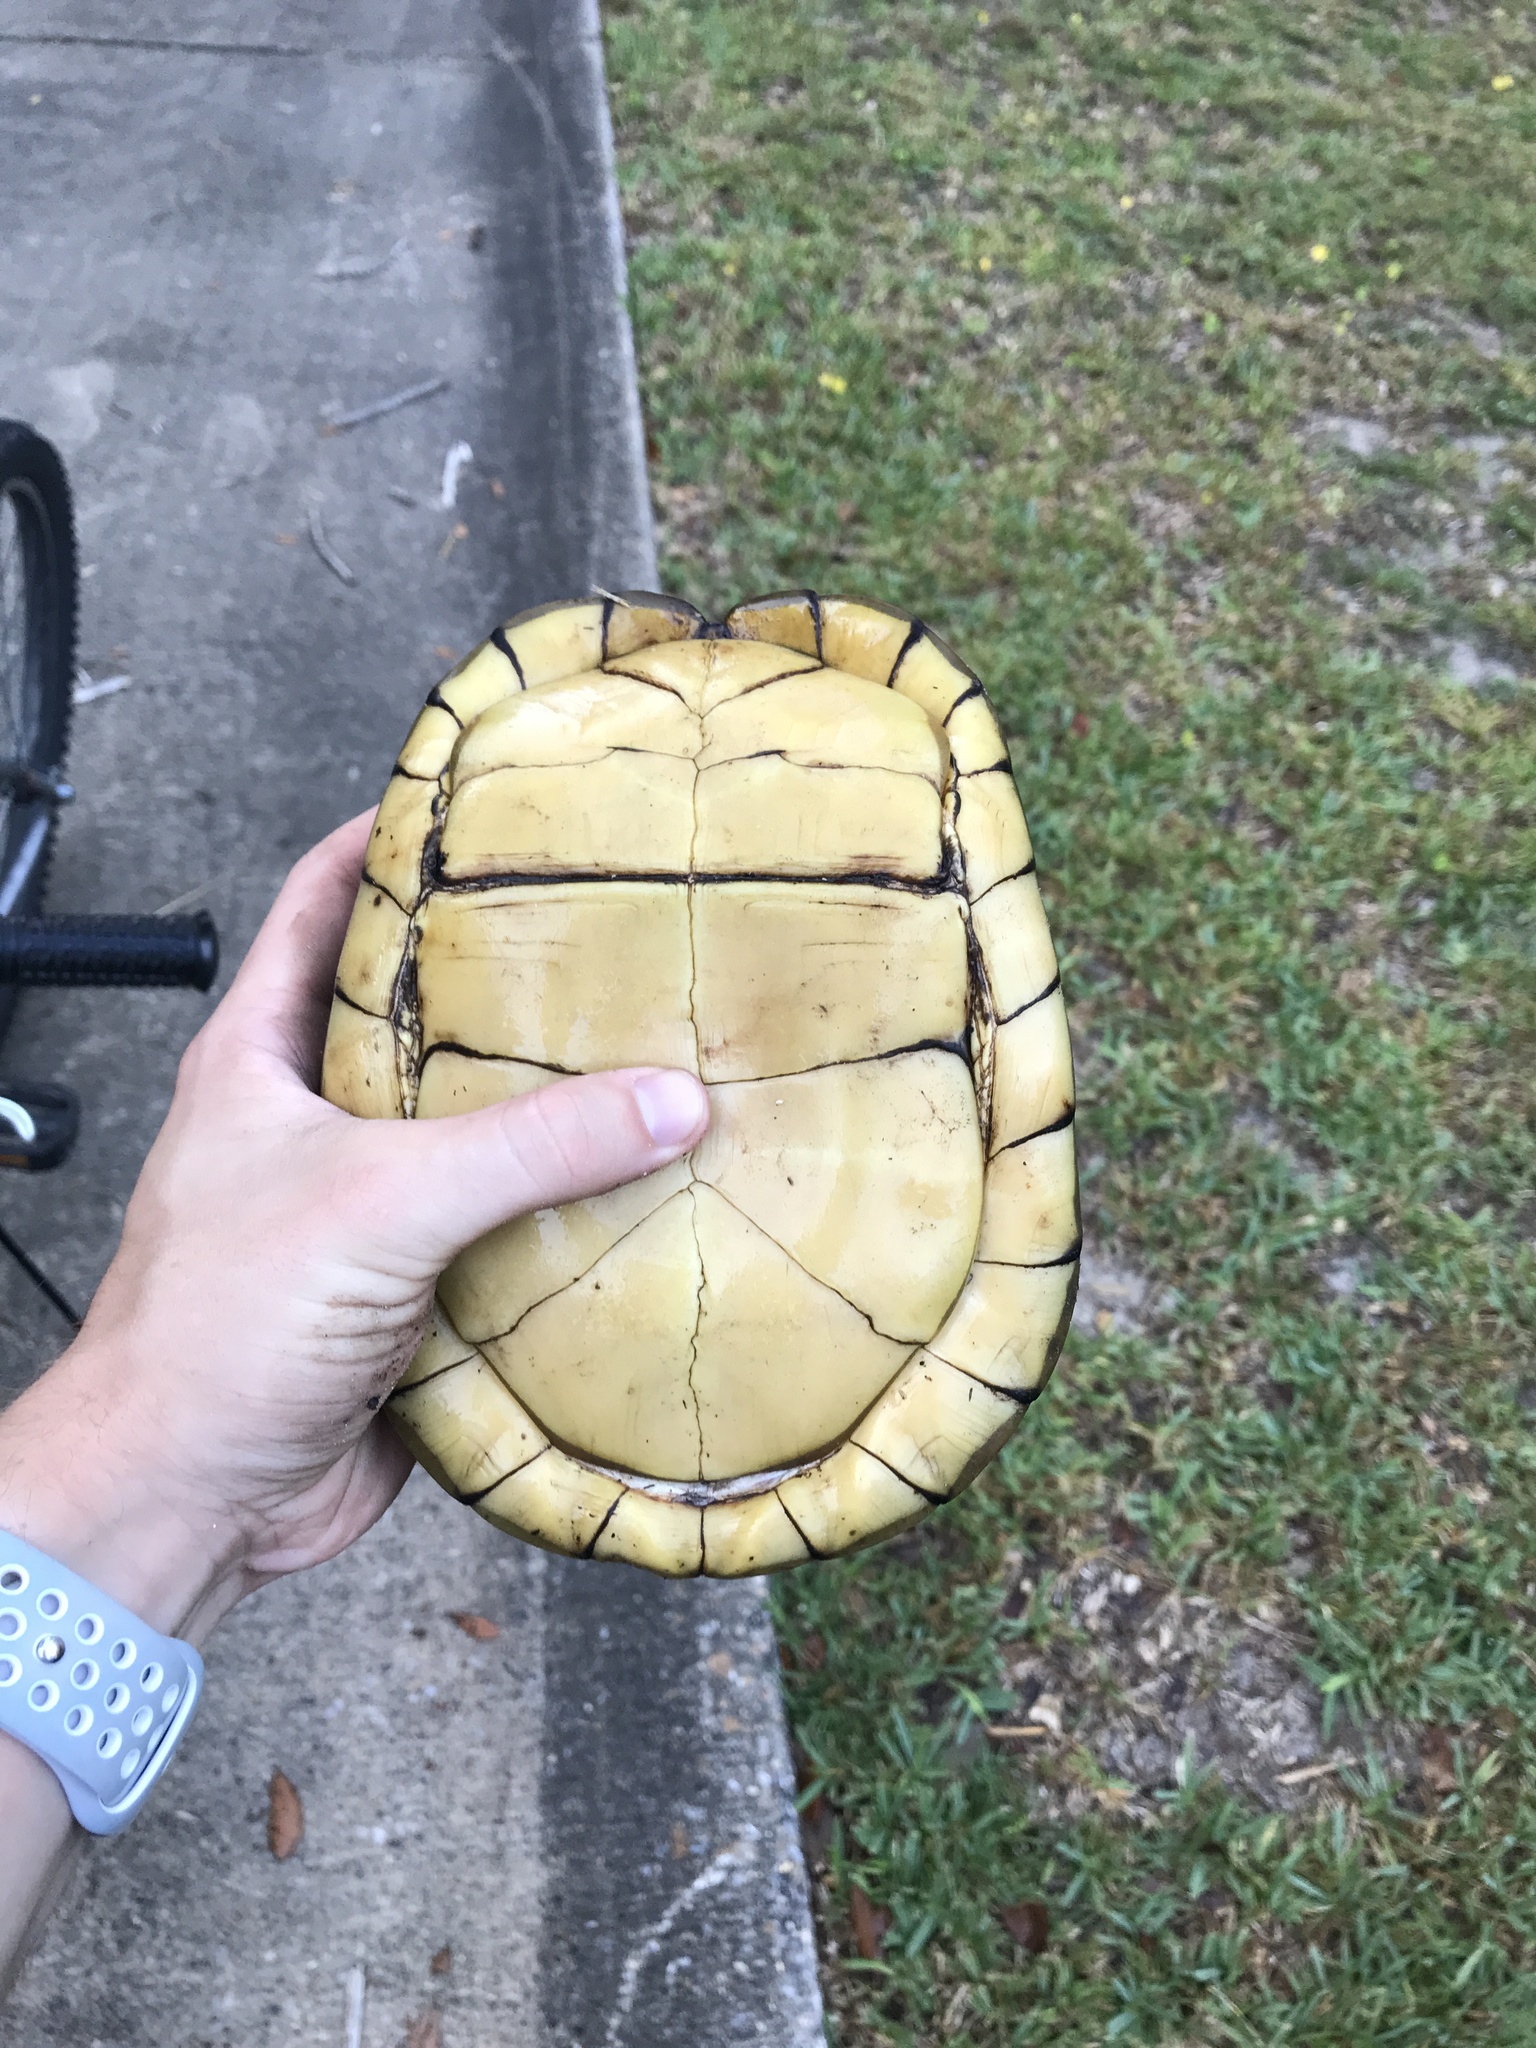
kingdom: Animalia
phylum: Chordata
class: Testudines
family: Emydidae
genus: Terrapene
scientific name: Terrapene carolina
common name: Common box turtle
